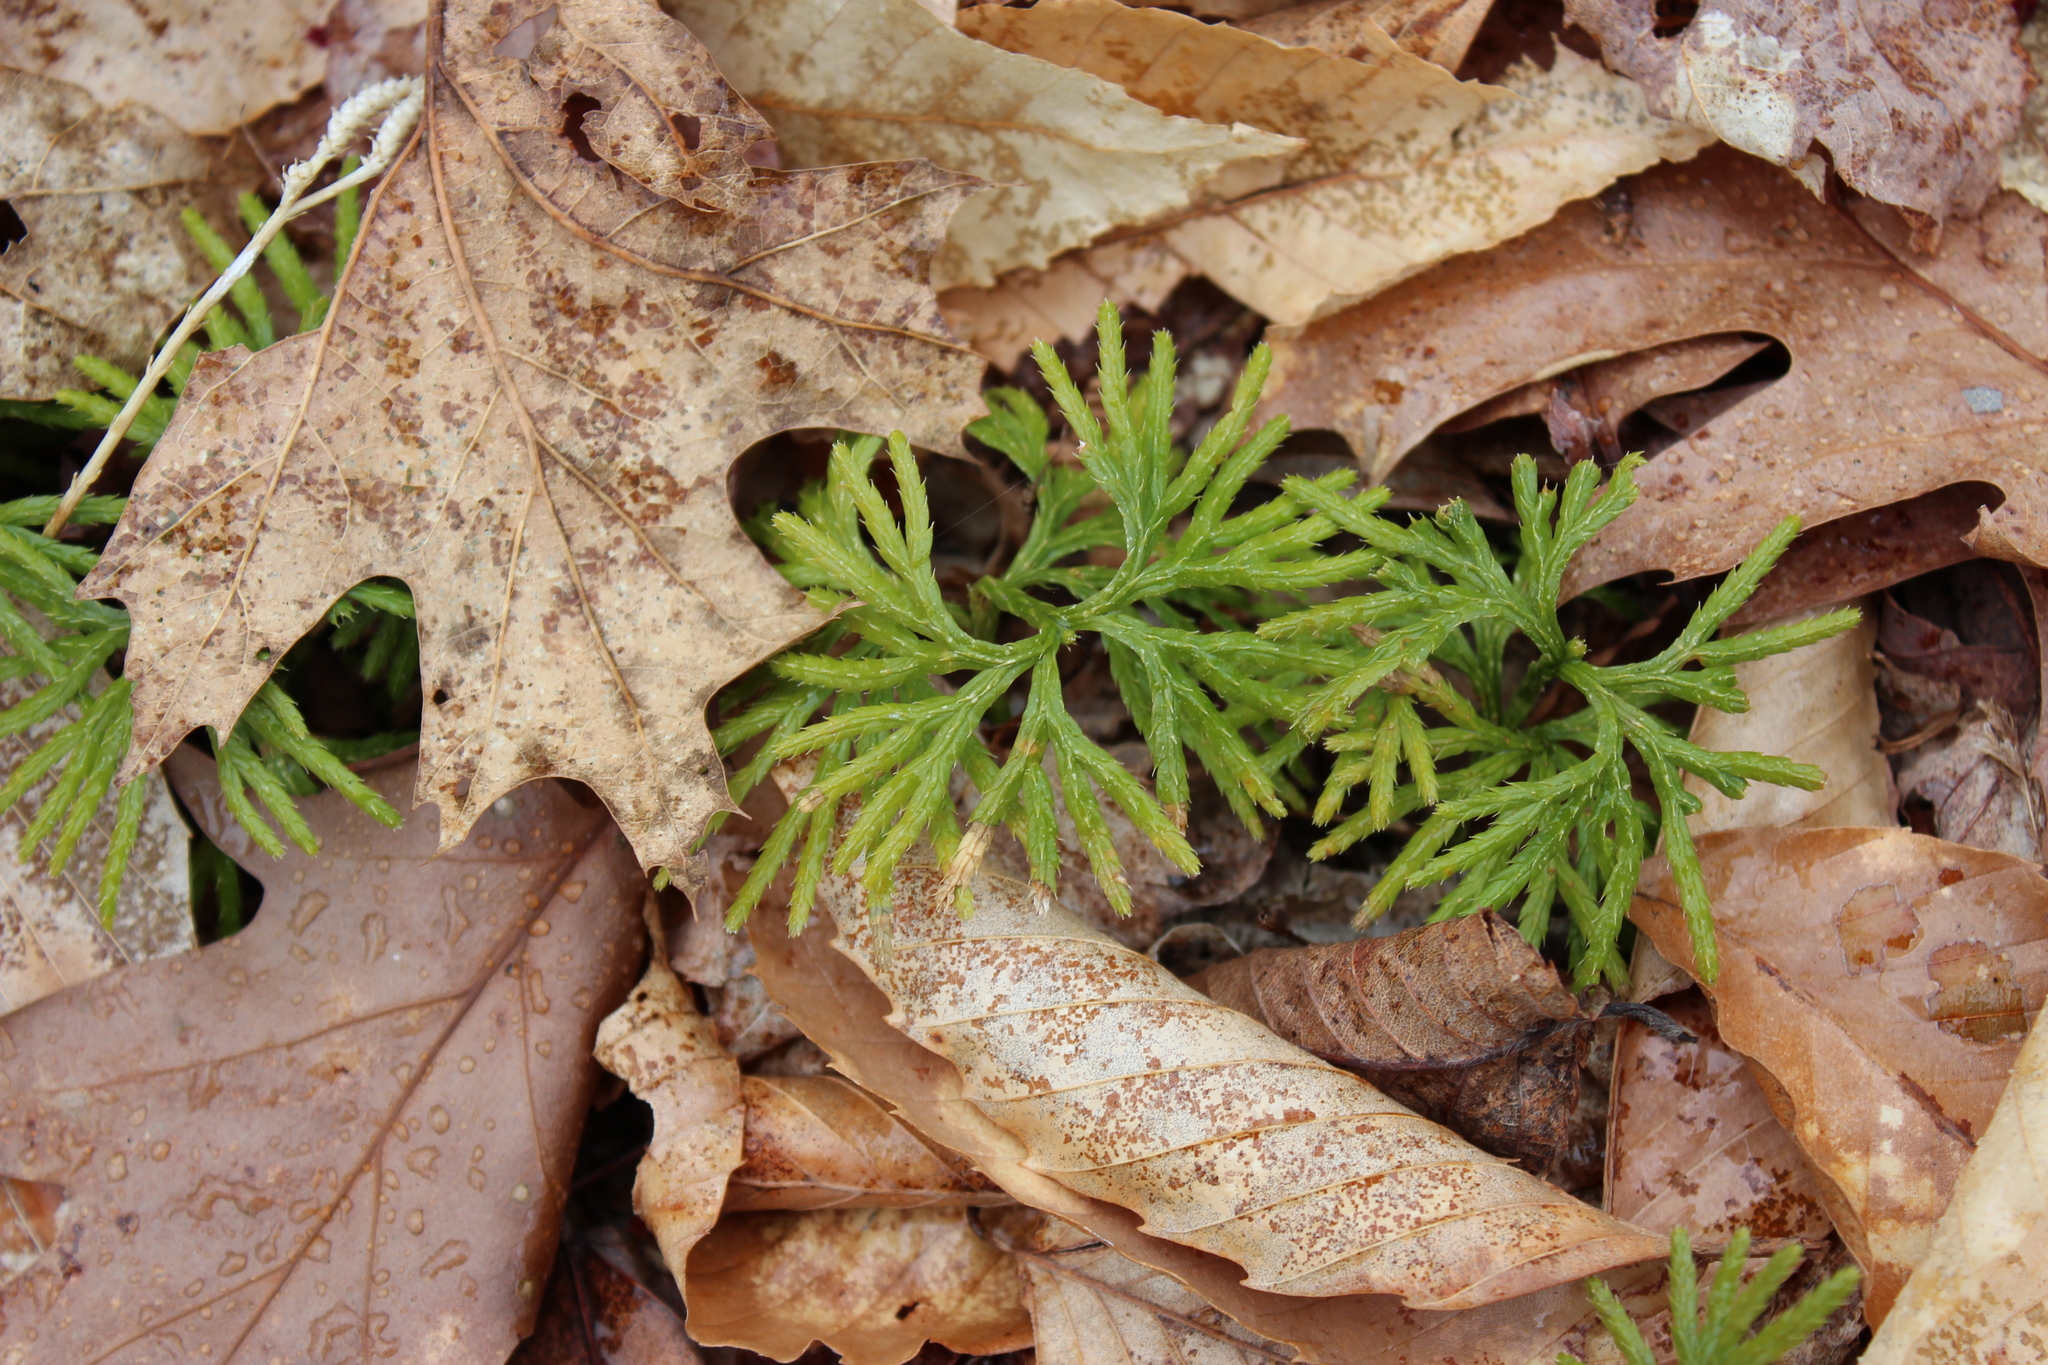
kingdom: Plantae
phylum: Tracheophyta
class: Lycopodiopsida
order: Lycopodiales
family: Lycopodiaceae
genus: Diphasiastrum
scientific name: Diphasiastrum digitatum
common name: Southern running-pine
